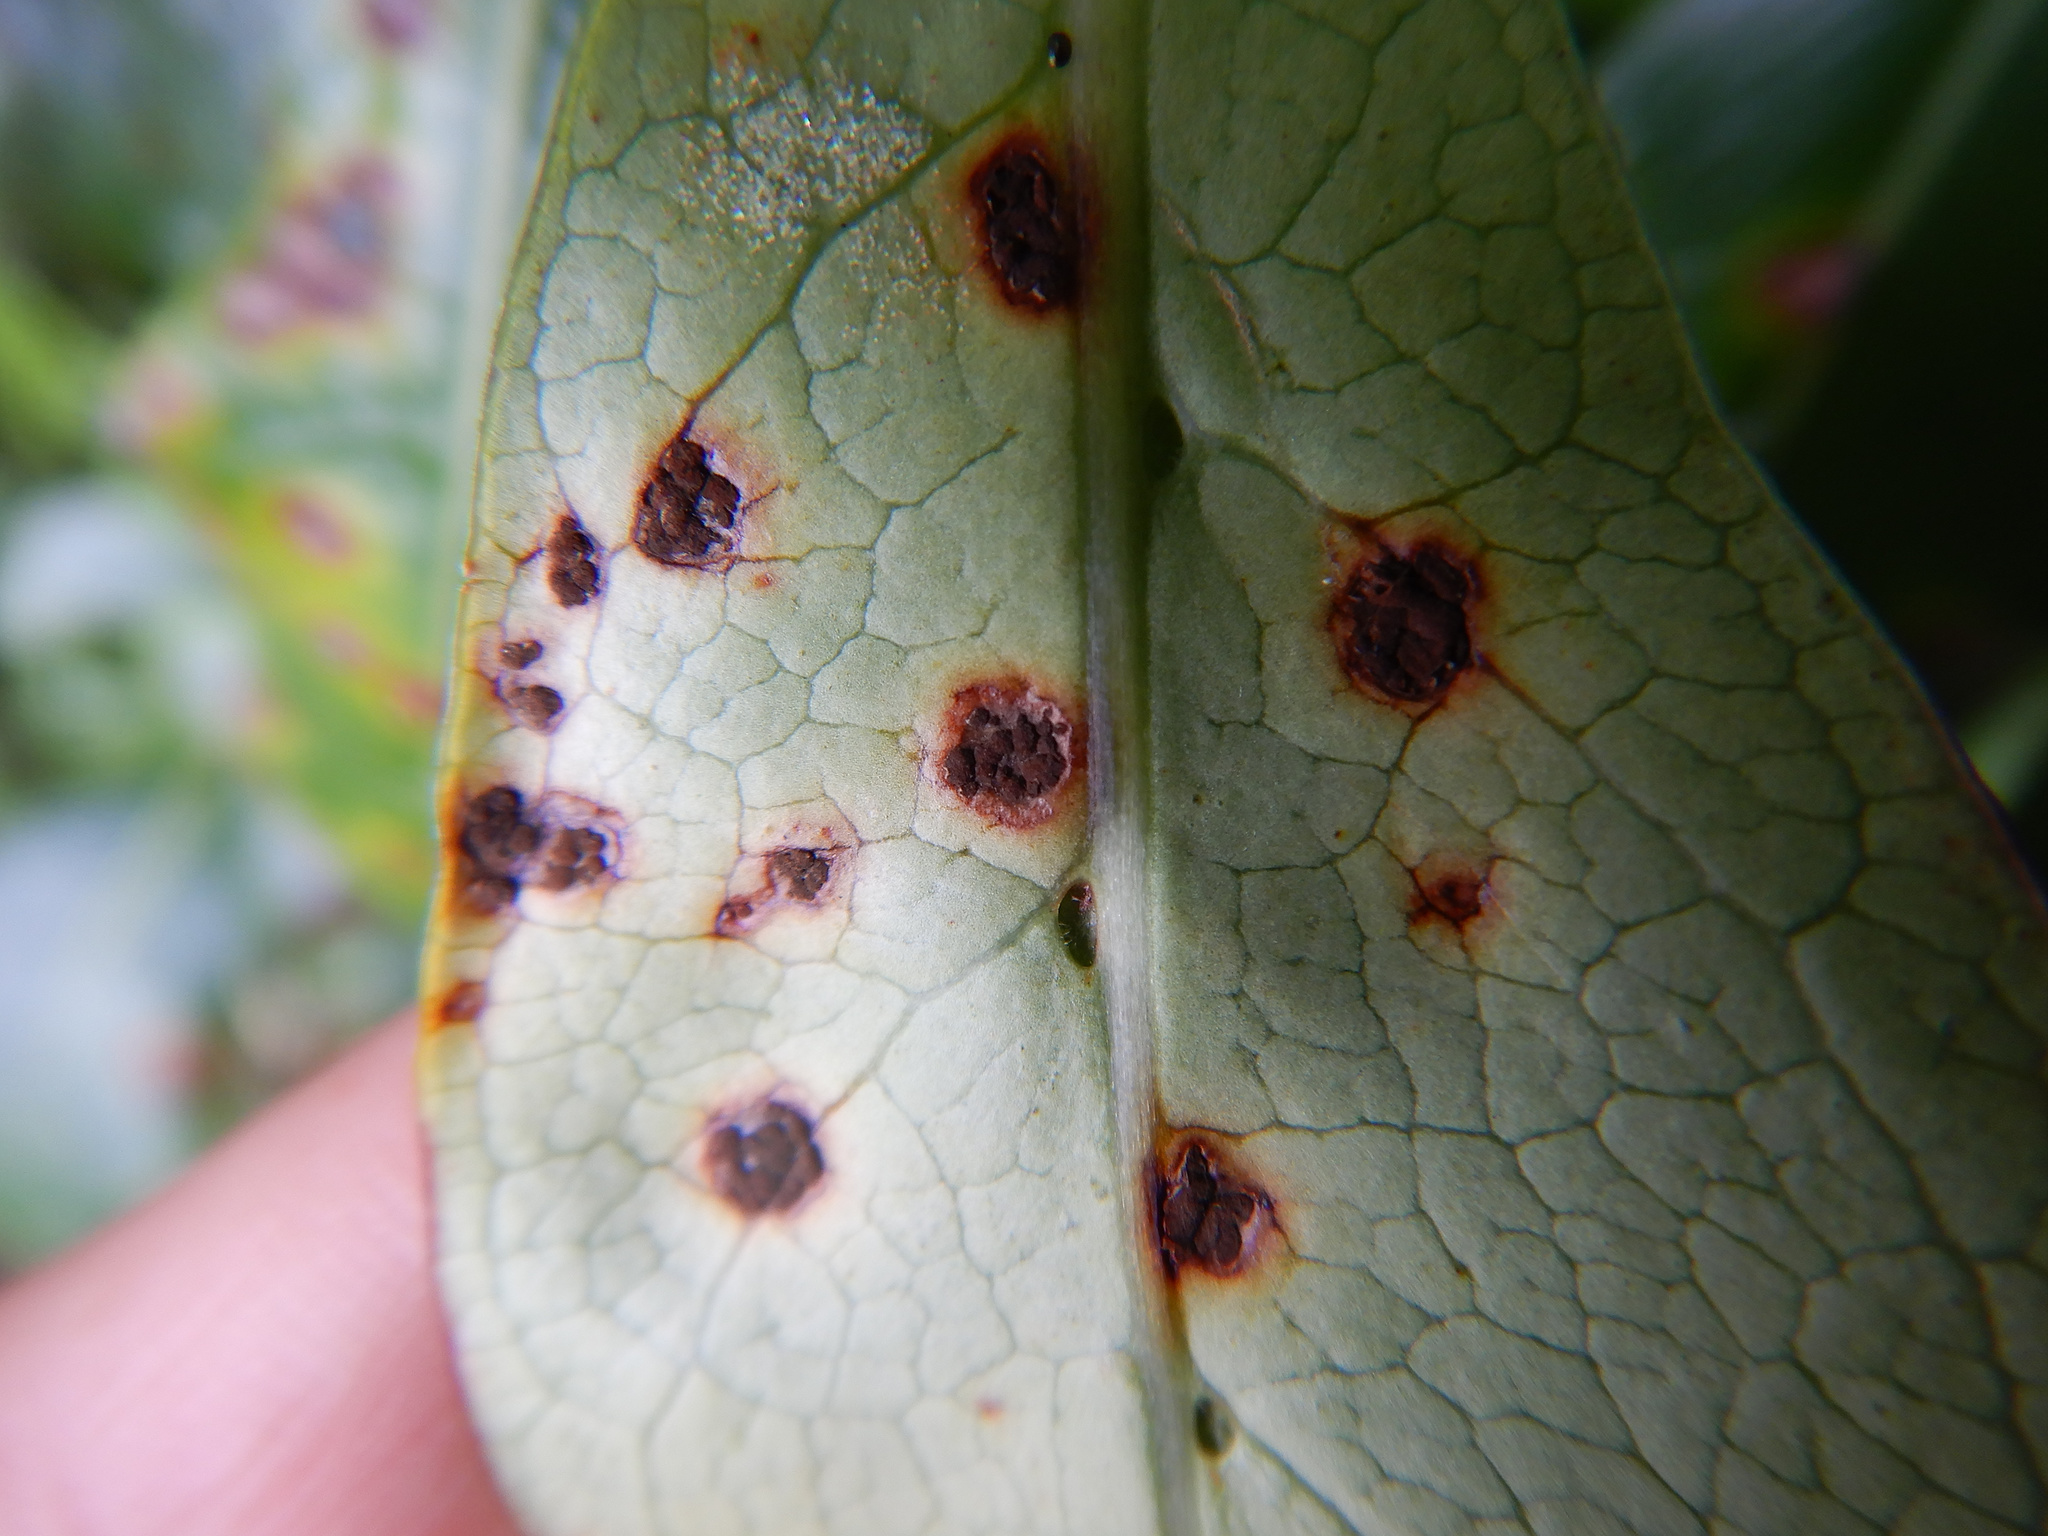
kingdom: Fungi
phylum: Basidiomycota
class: Pucciniomycetes
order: Pucciniales
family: Pucciniaceae
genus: Puccinia
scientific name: Puccinia coprosmae
